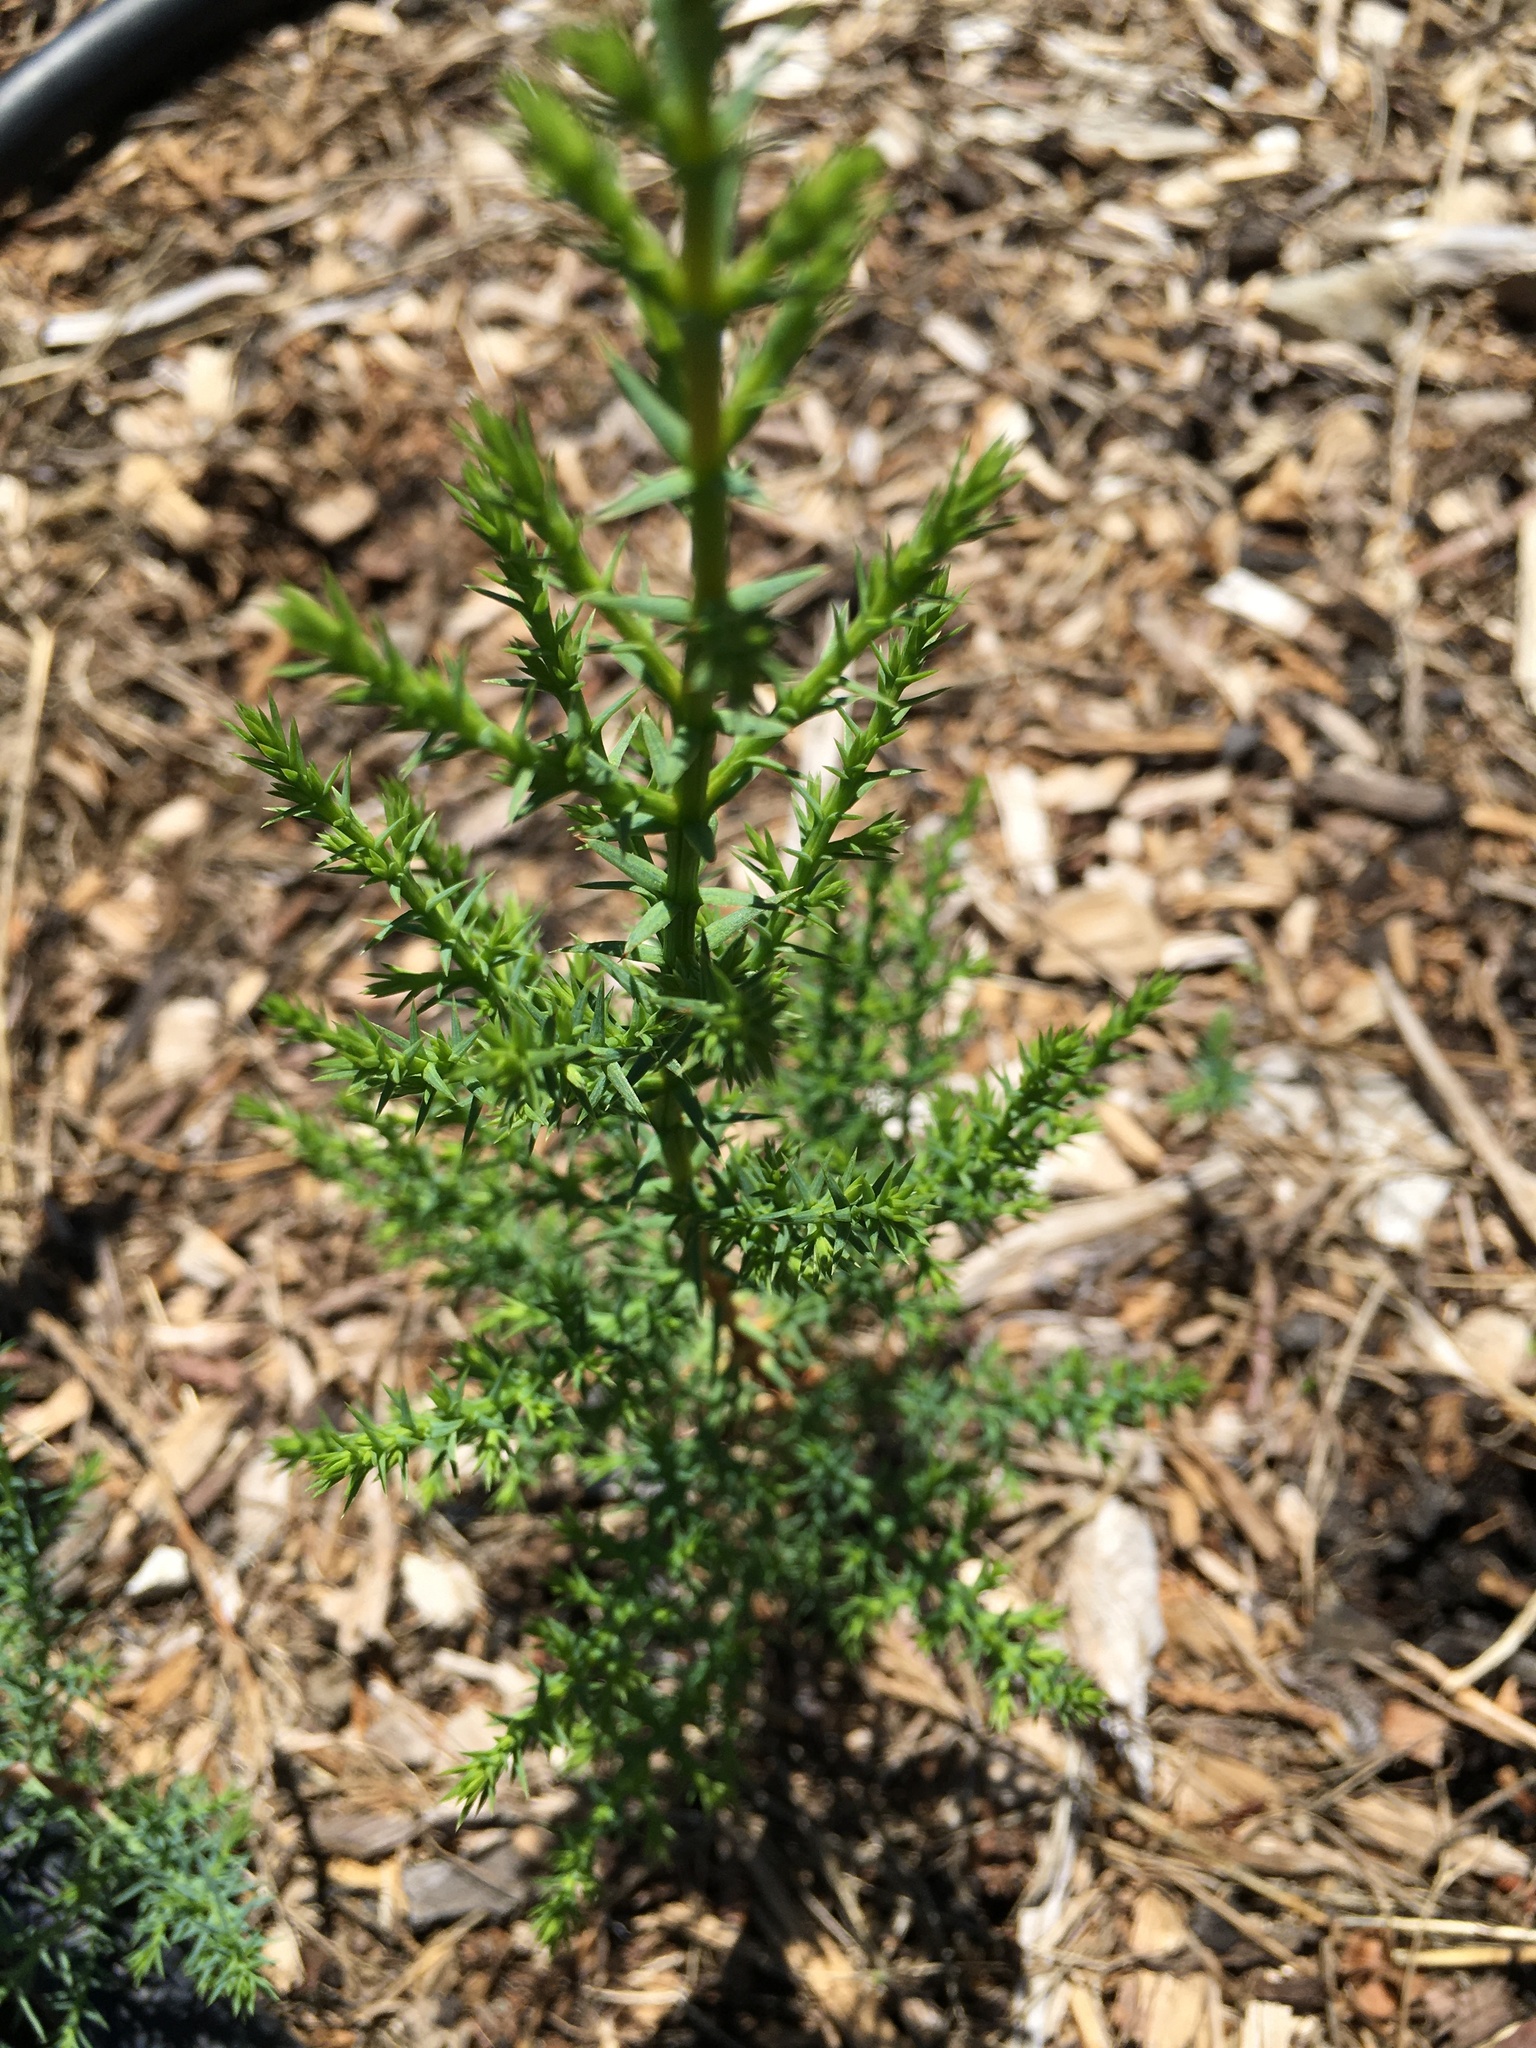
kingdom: Plantae
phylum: Tracheophyta
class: Pinopsida
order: Pinales
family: Cupressaceae
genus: Cupressus
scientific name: Cupressus macrocarpa
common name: Monterey cypress
